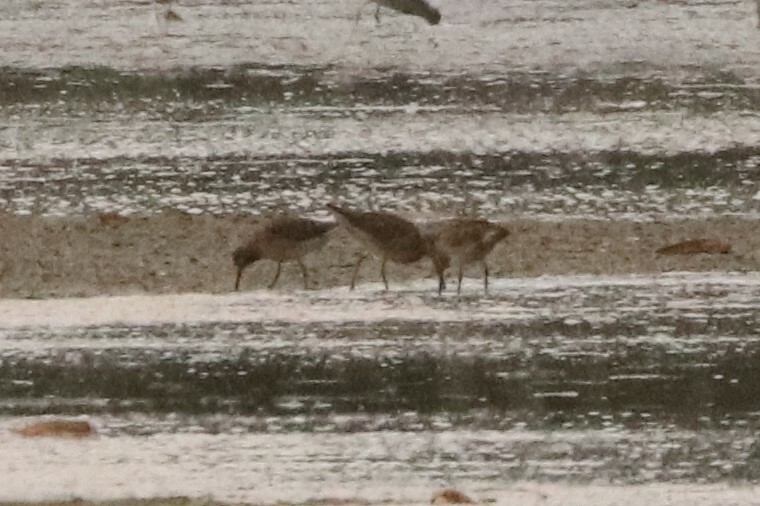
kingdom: Animalia
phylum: Chordata
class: Aves
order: Charadriiformes
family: Scolopacidae
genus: Limnodromus
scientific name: Limnodromus griseus
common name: Short-billed dowitcher
